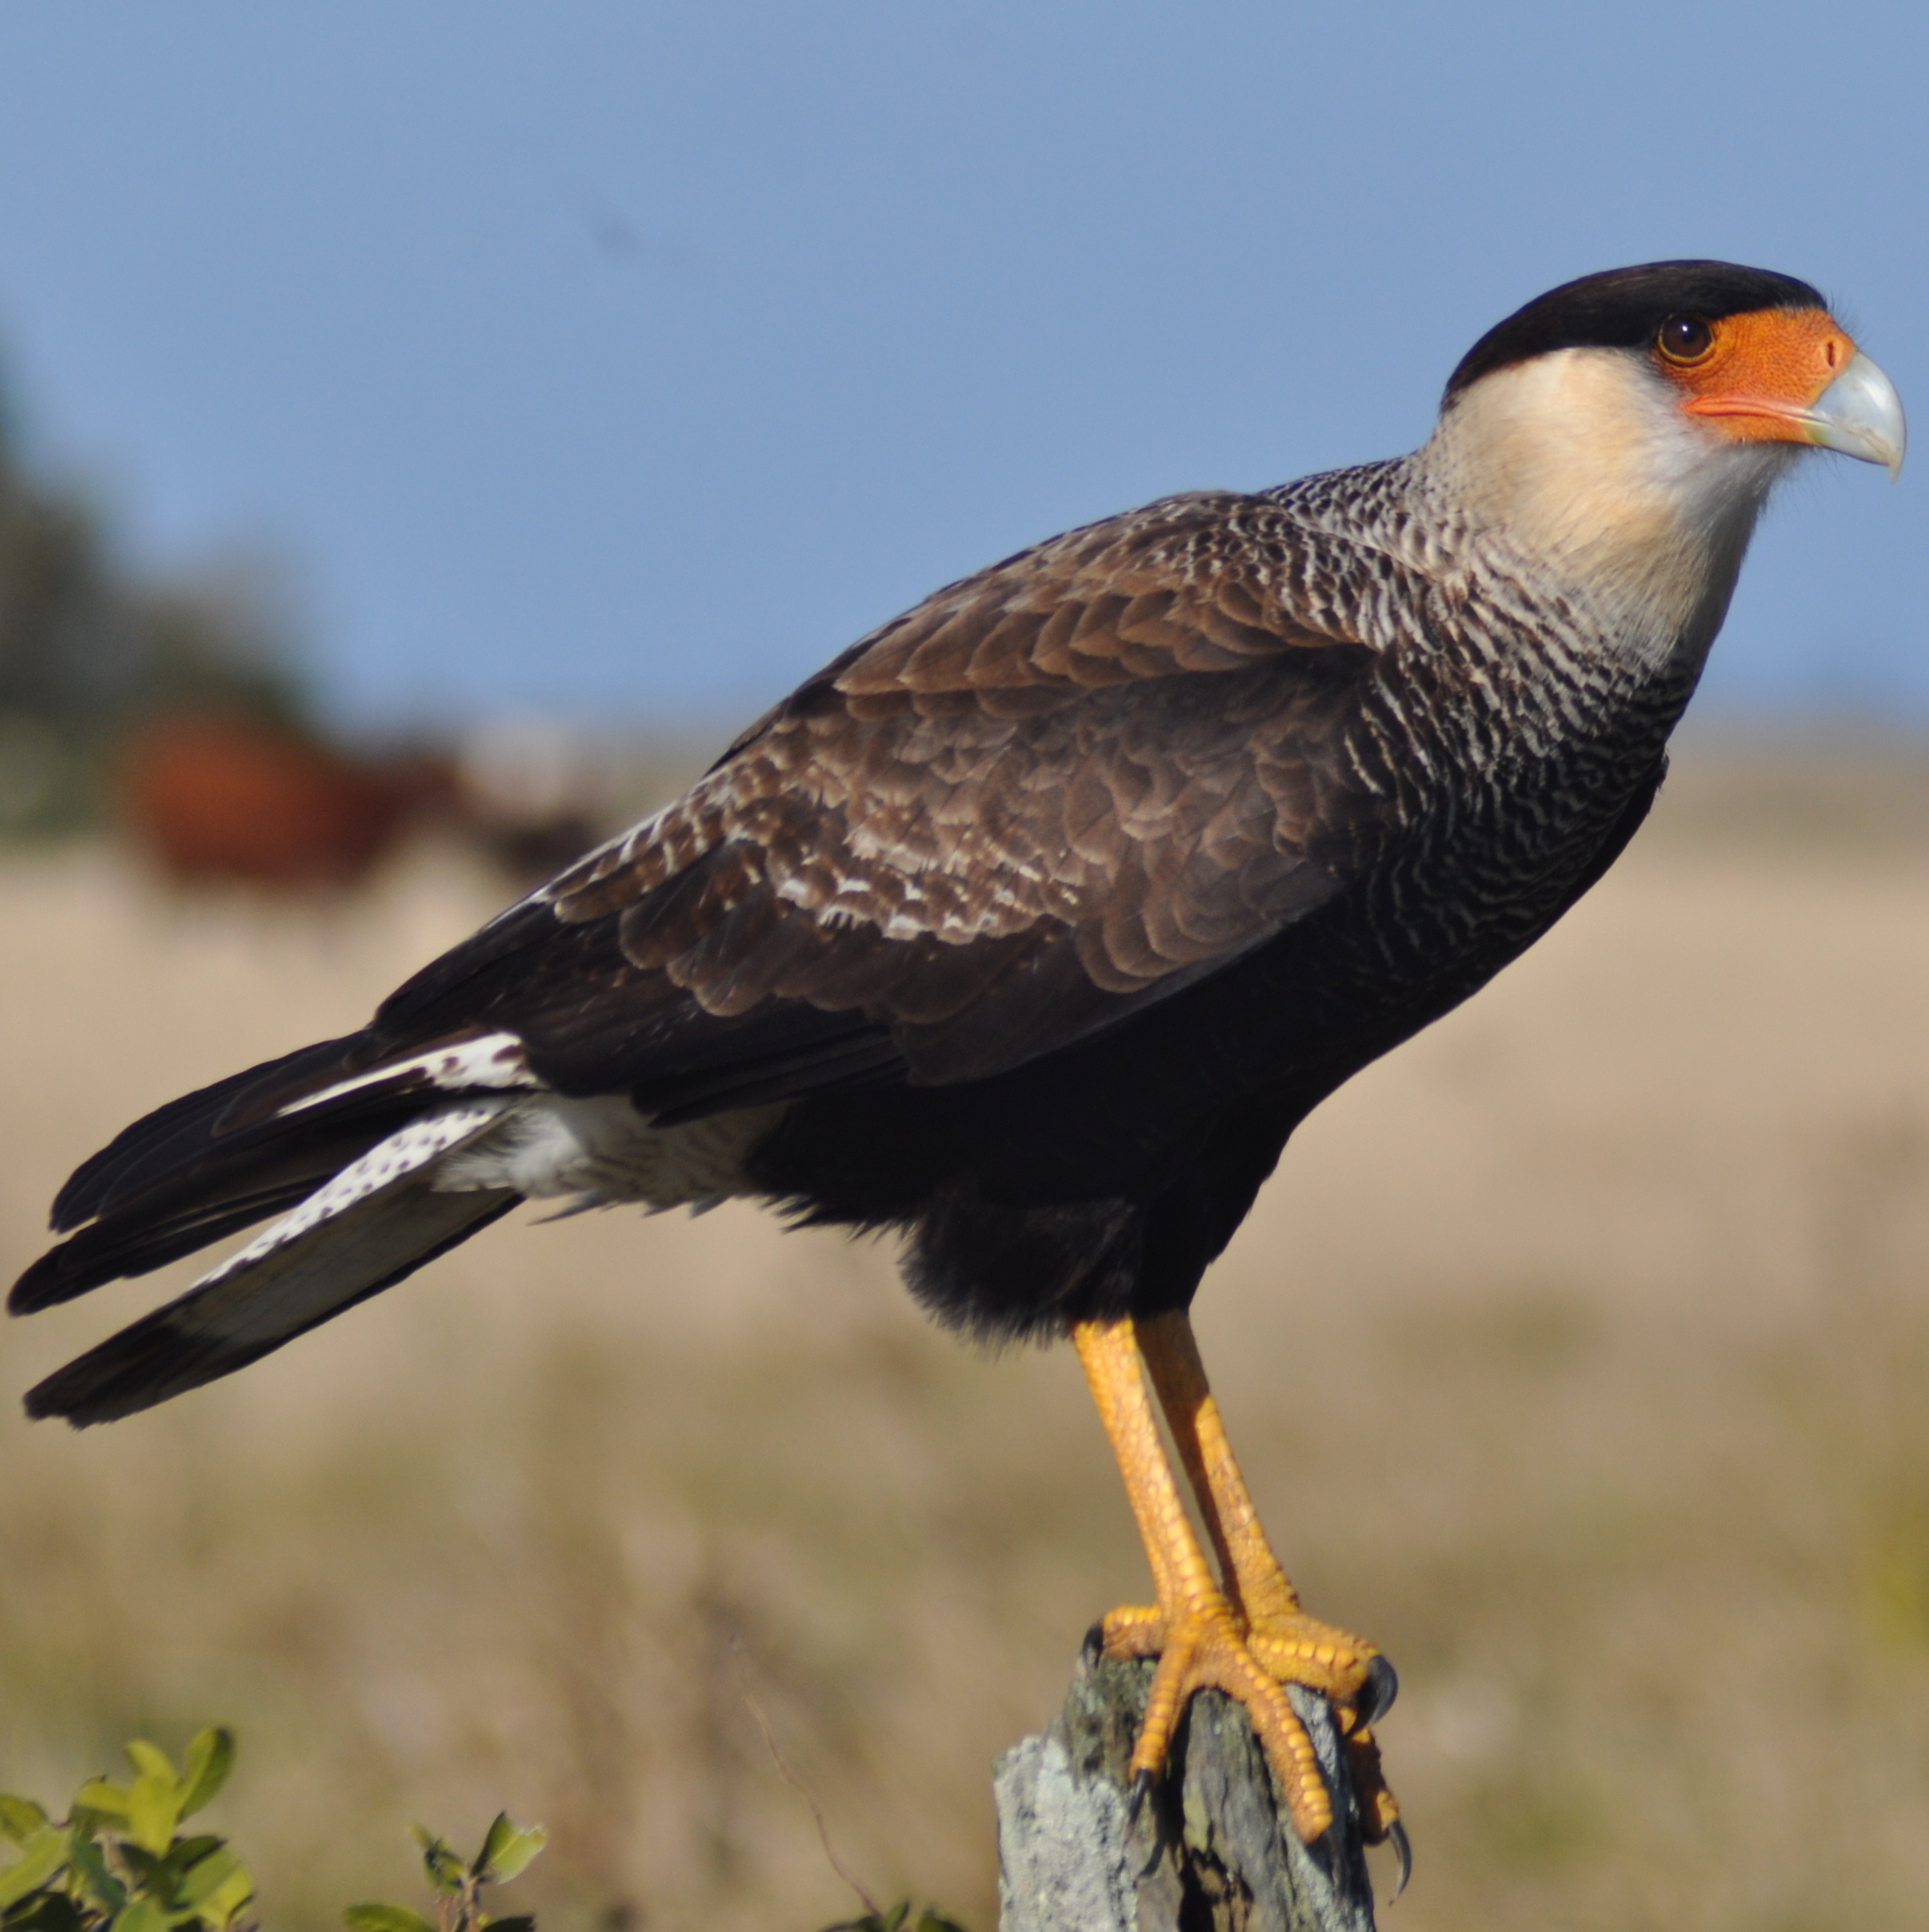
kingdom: Animalia
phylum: Chordata
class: Aves
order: Falconiformes
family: Falconidae
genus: Caracara
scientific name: Caracara plancus
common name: Southern caracara
